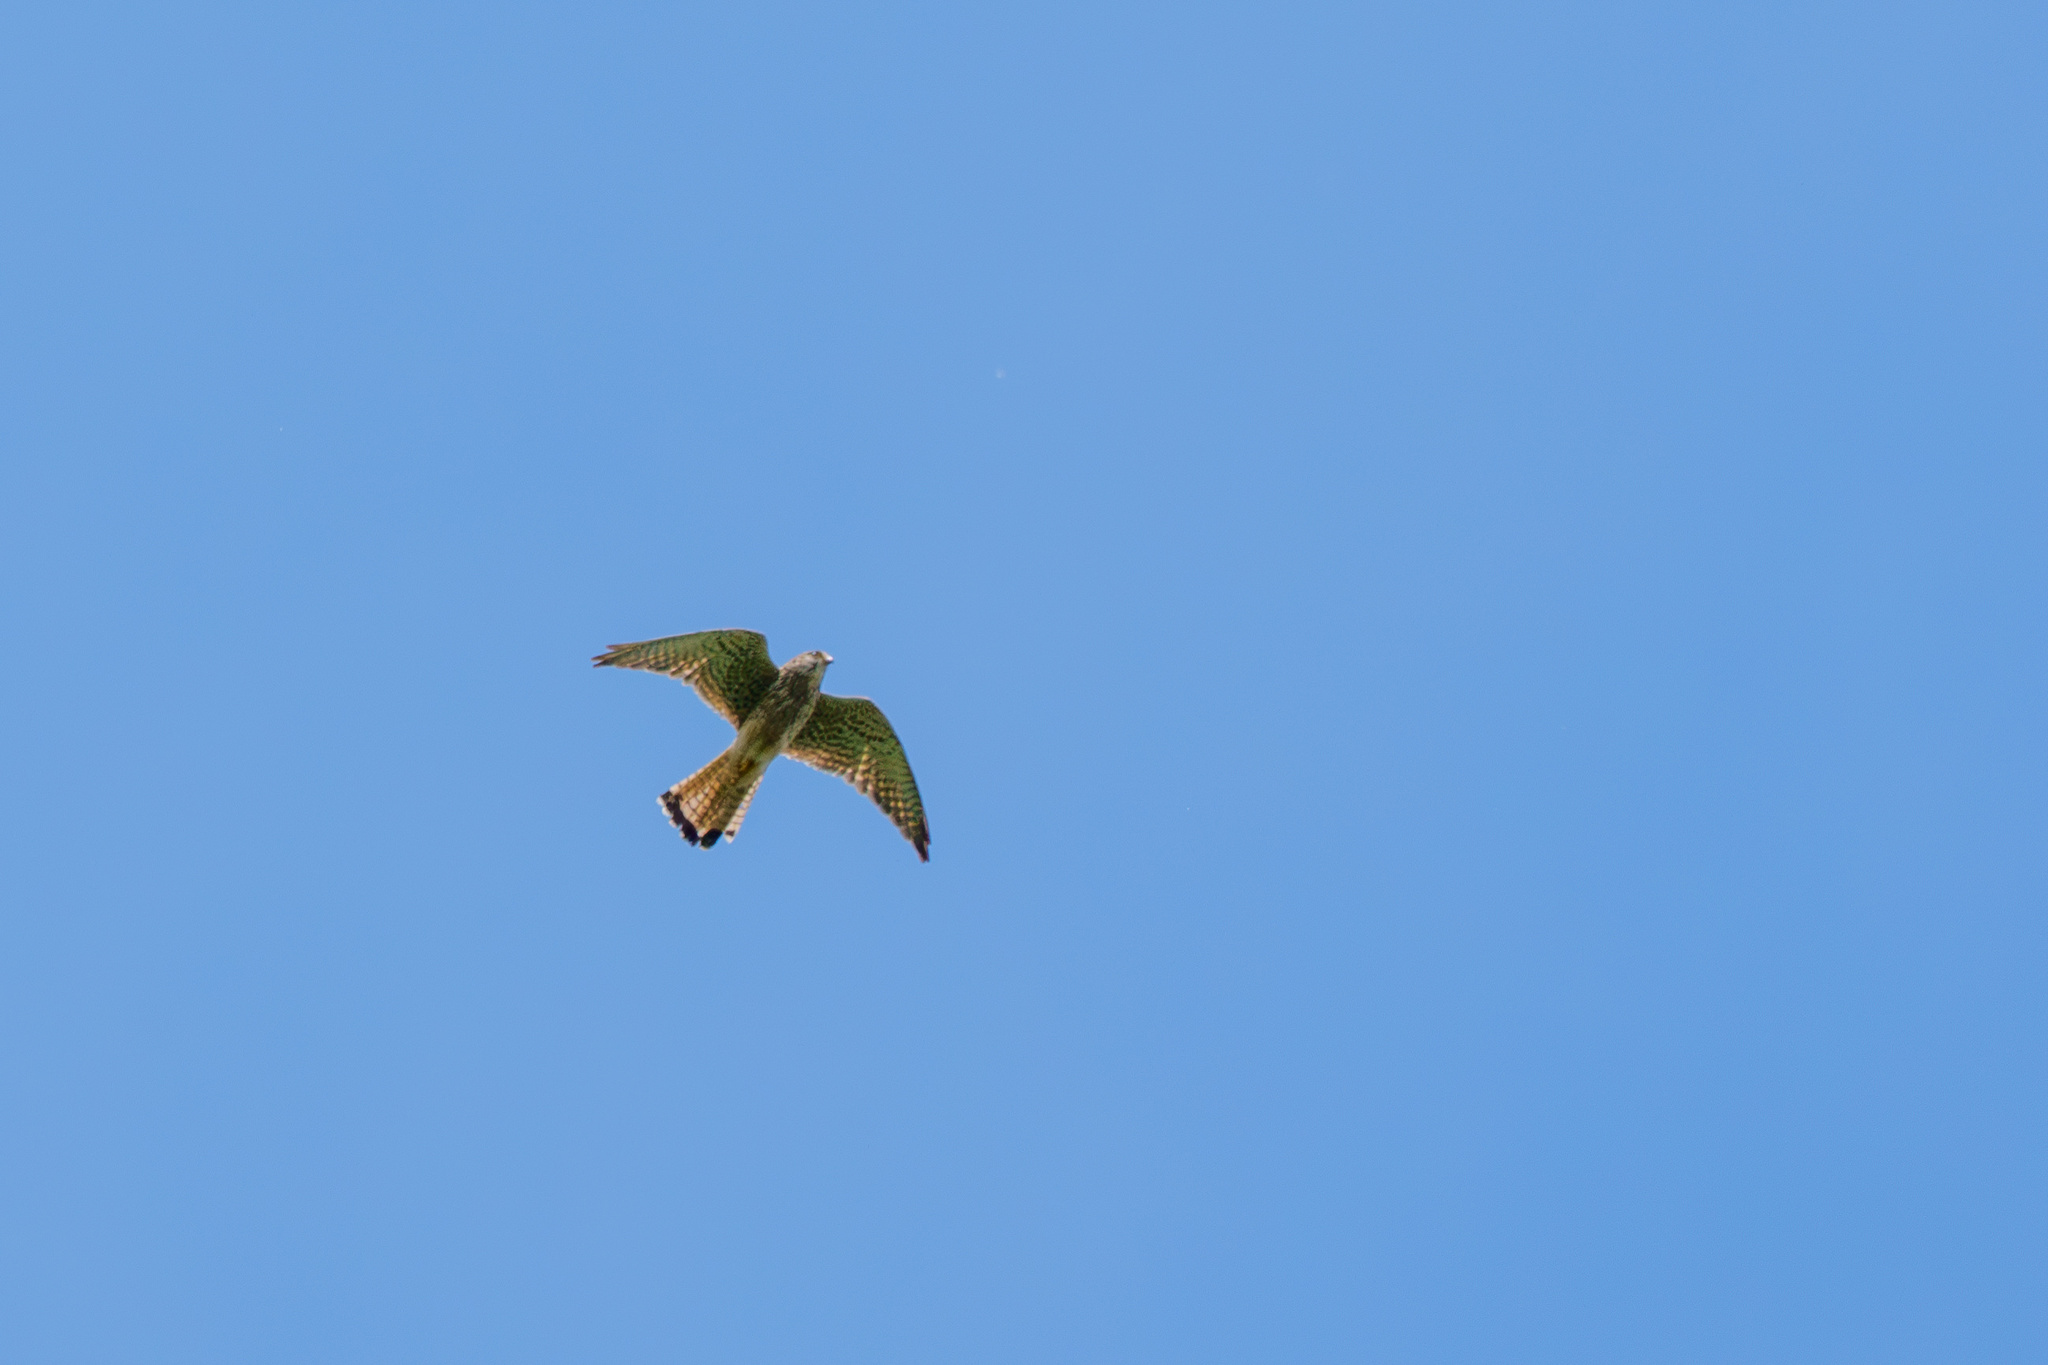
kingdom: Animalia
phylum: Chordata
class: Aves
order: Falconiformes
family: Falconidae
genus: Falco
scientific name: Falco tinnunculus
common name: Common kestrel
